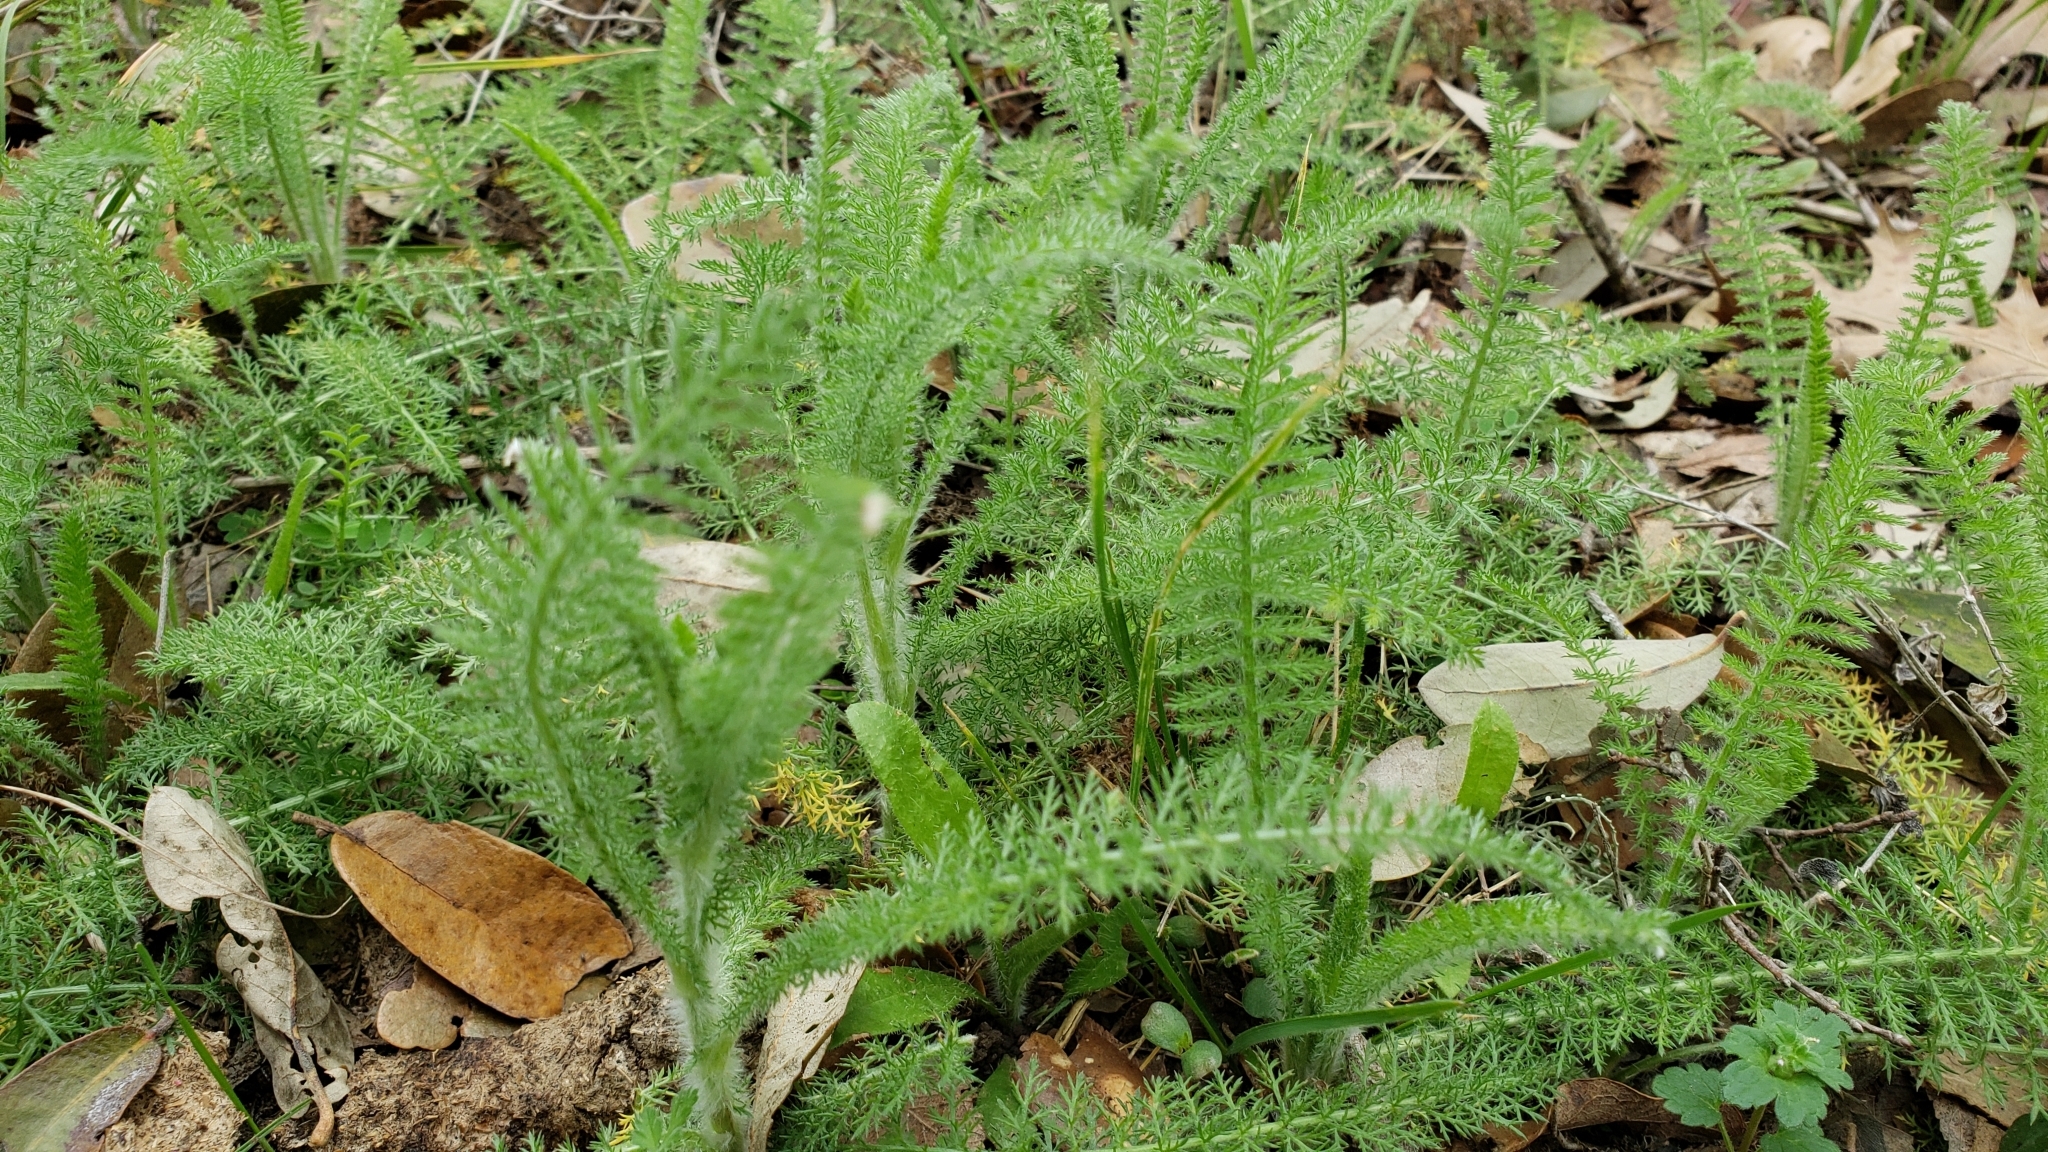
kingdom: Plantae
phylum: Tracheophyta
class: Magnoliopsida
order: Asterales
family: Asteraceae
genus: Achillea
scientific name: Achillea millefolium
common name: Yarrow
